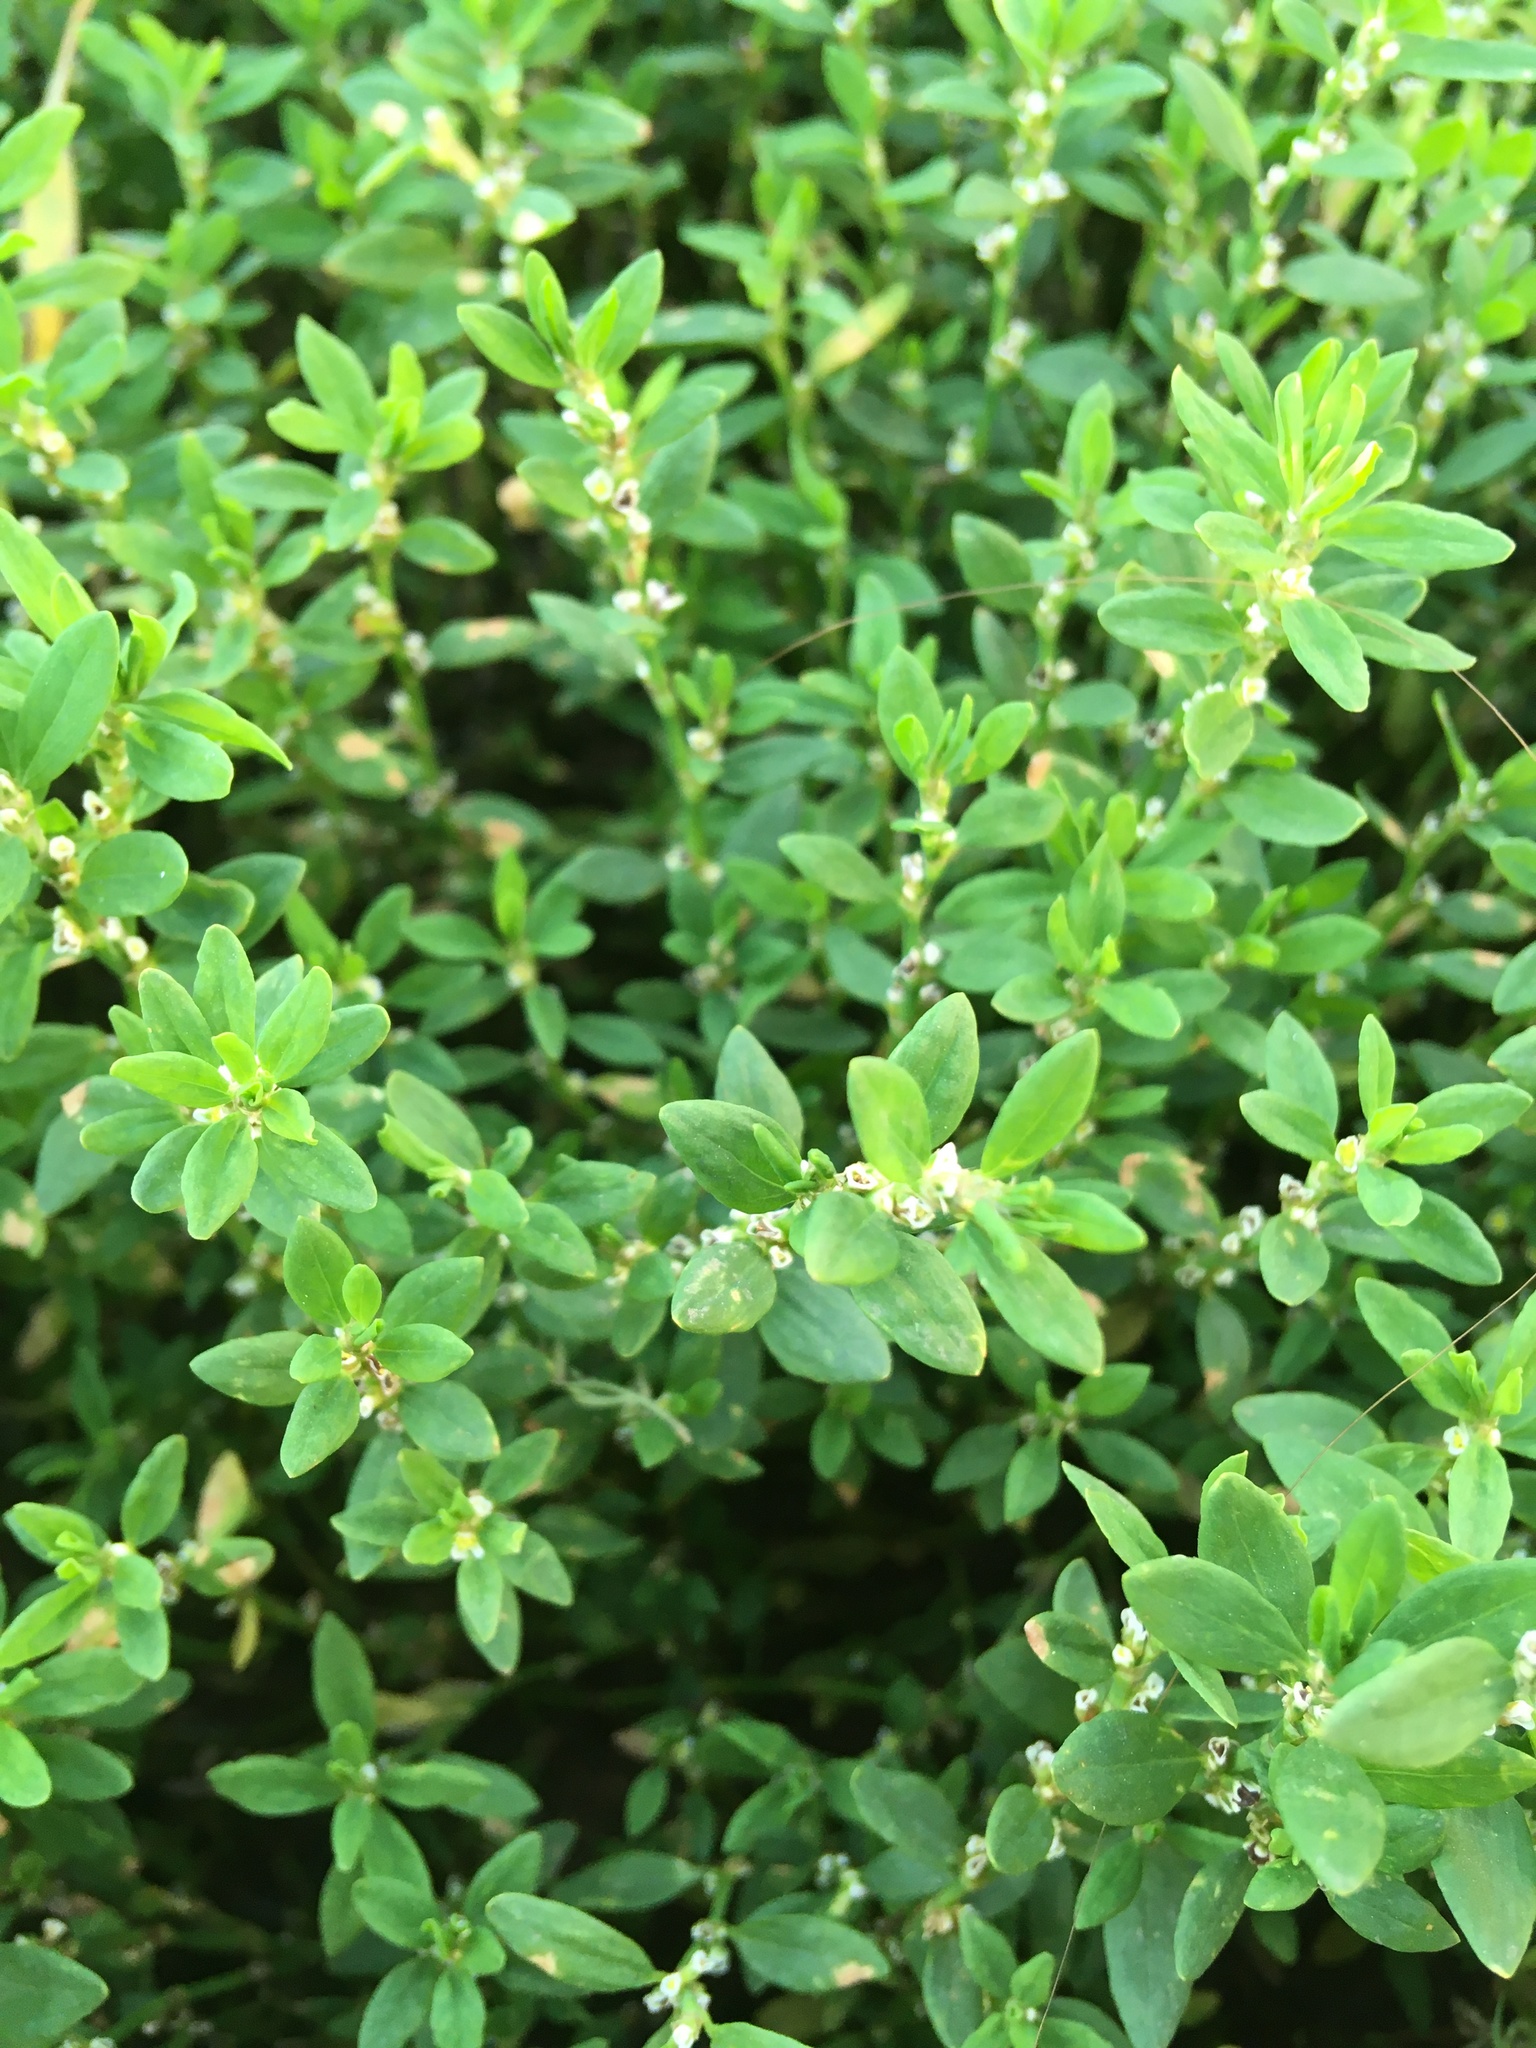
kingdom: Plantae
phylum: Tracheophyta
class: Magnoliopsida
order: Caryophyllales
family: Polygonaceae
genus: Polygonum
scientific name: Polygonum
